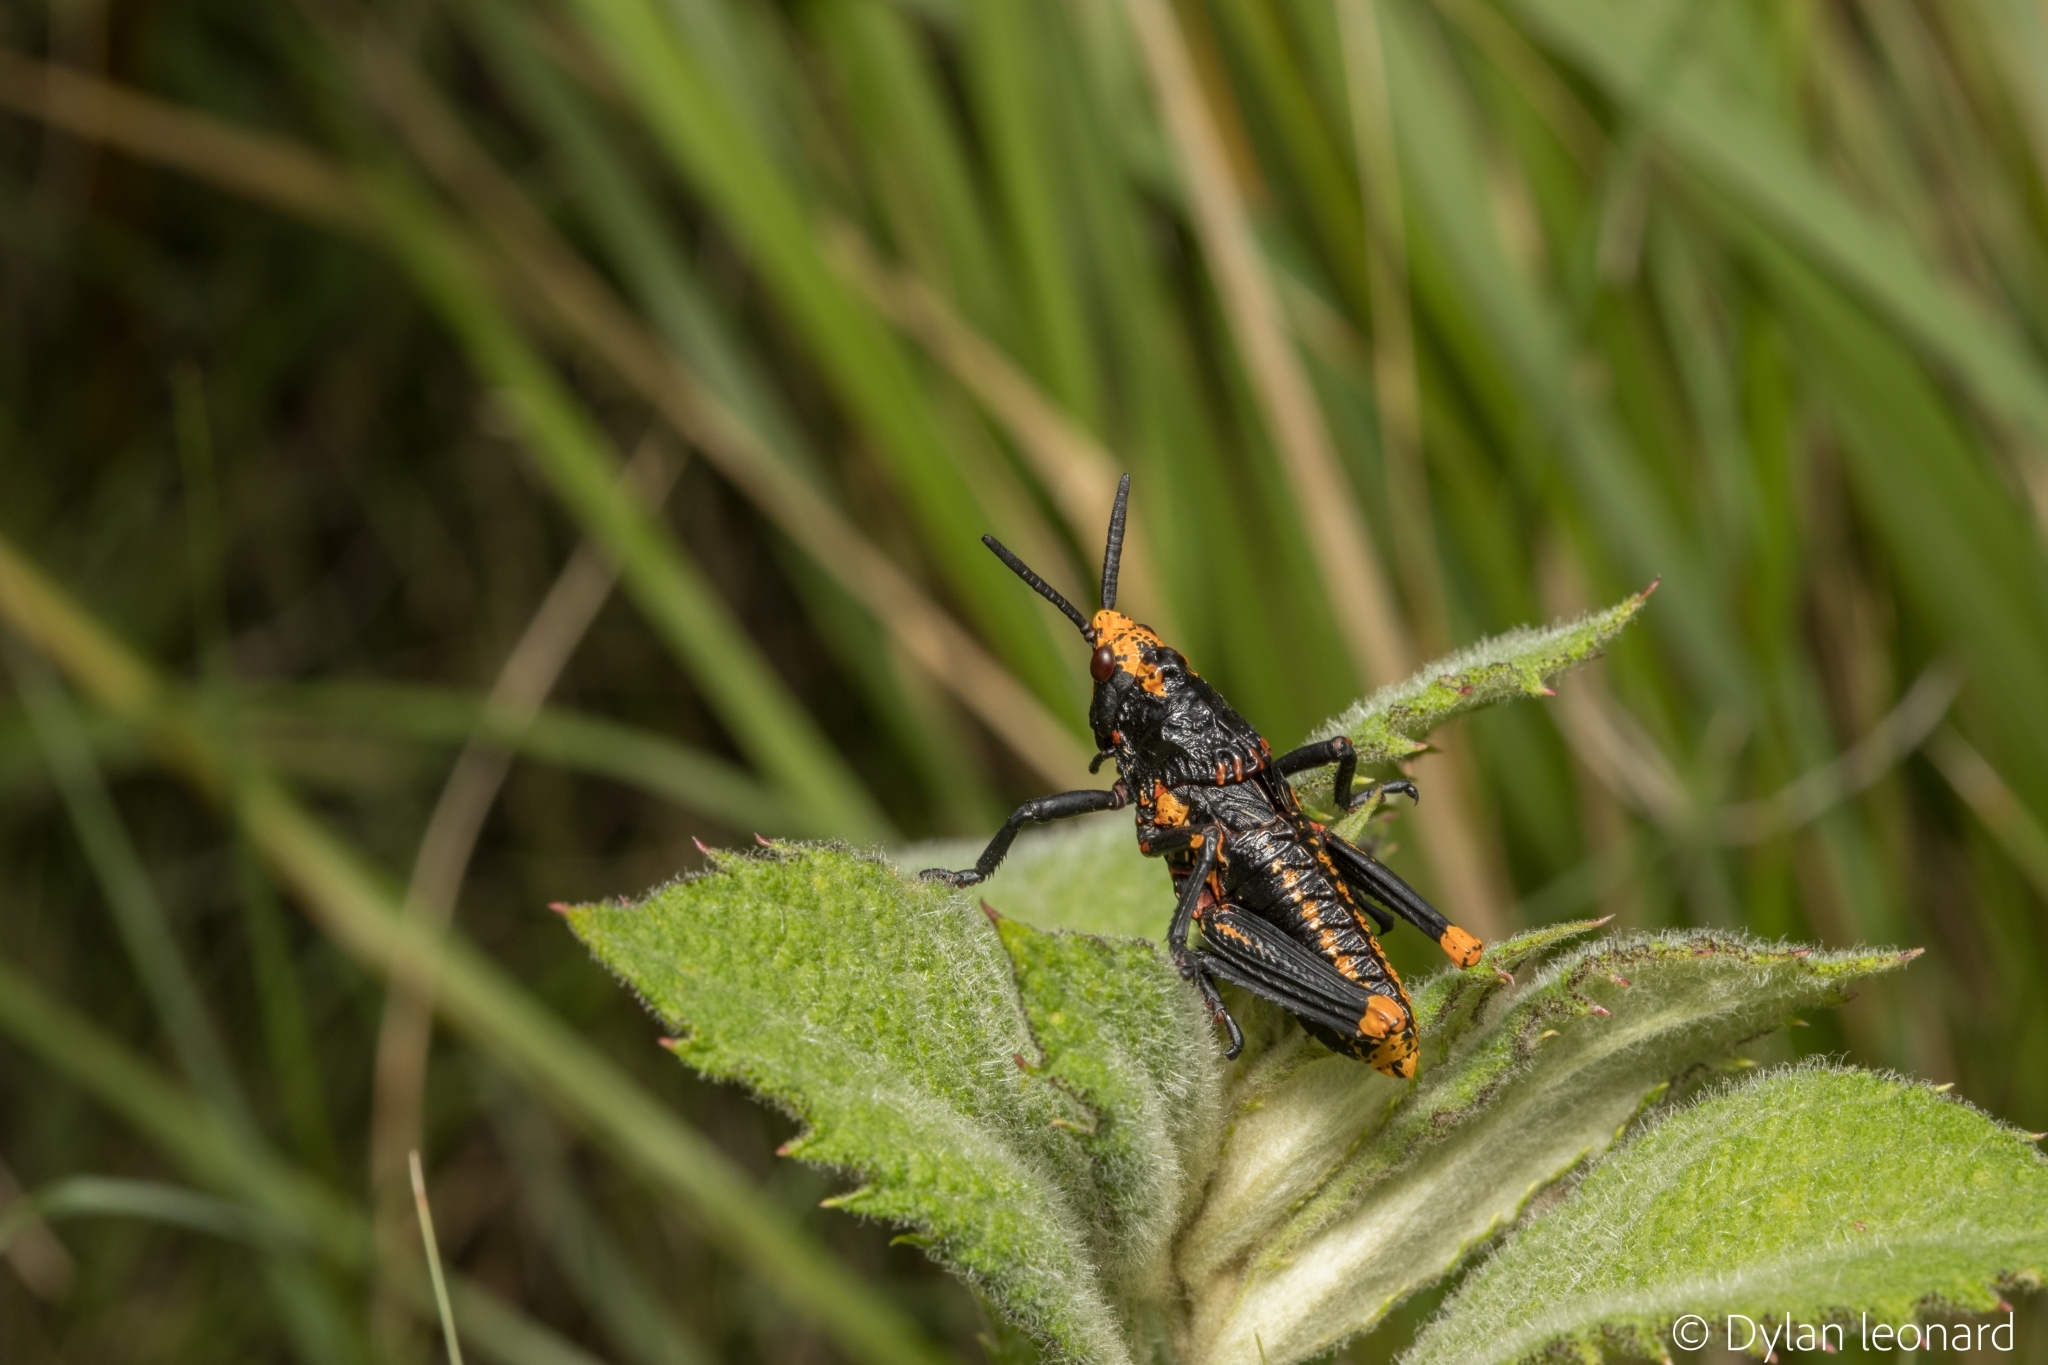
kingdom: Animalia
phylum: Arthropoda
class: Insecta
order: Orthoptera
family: Pyrgomorphidae
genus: Dictyophorus
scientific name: Dictyophorus spumans
